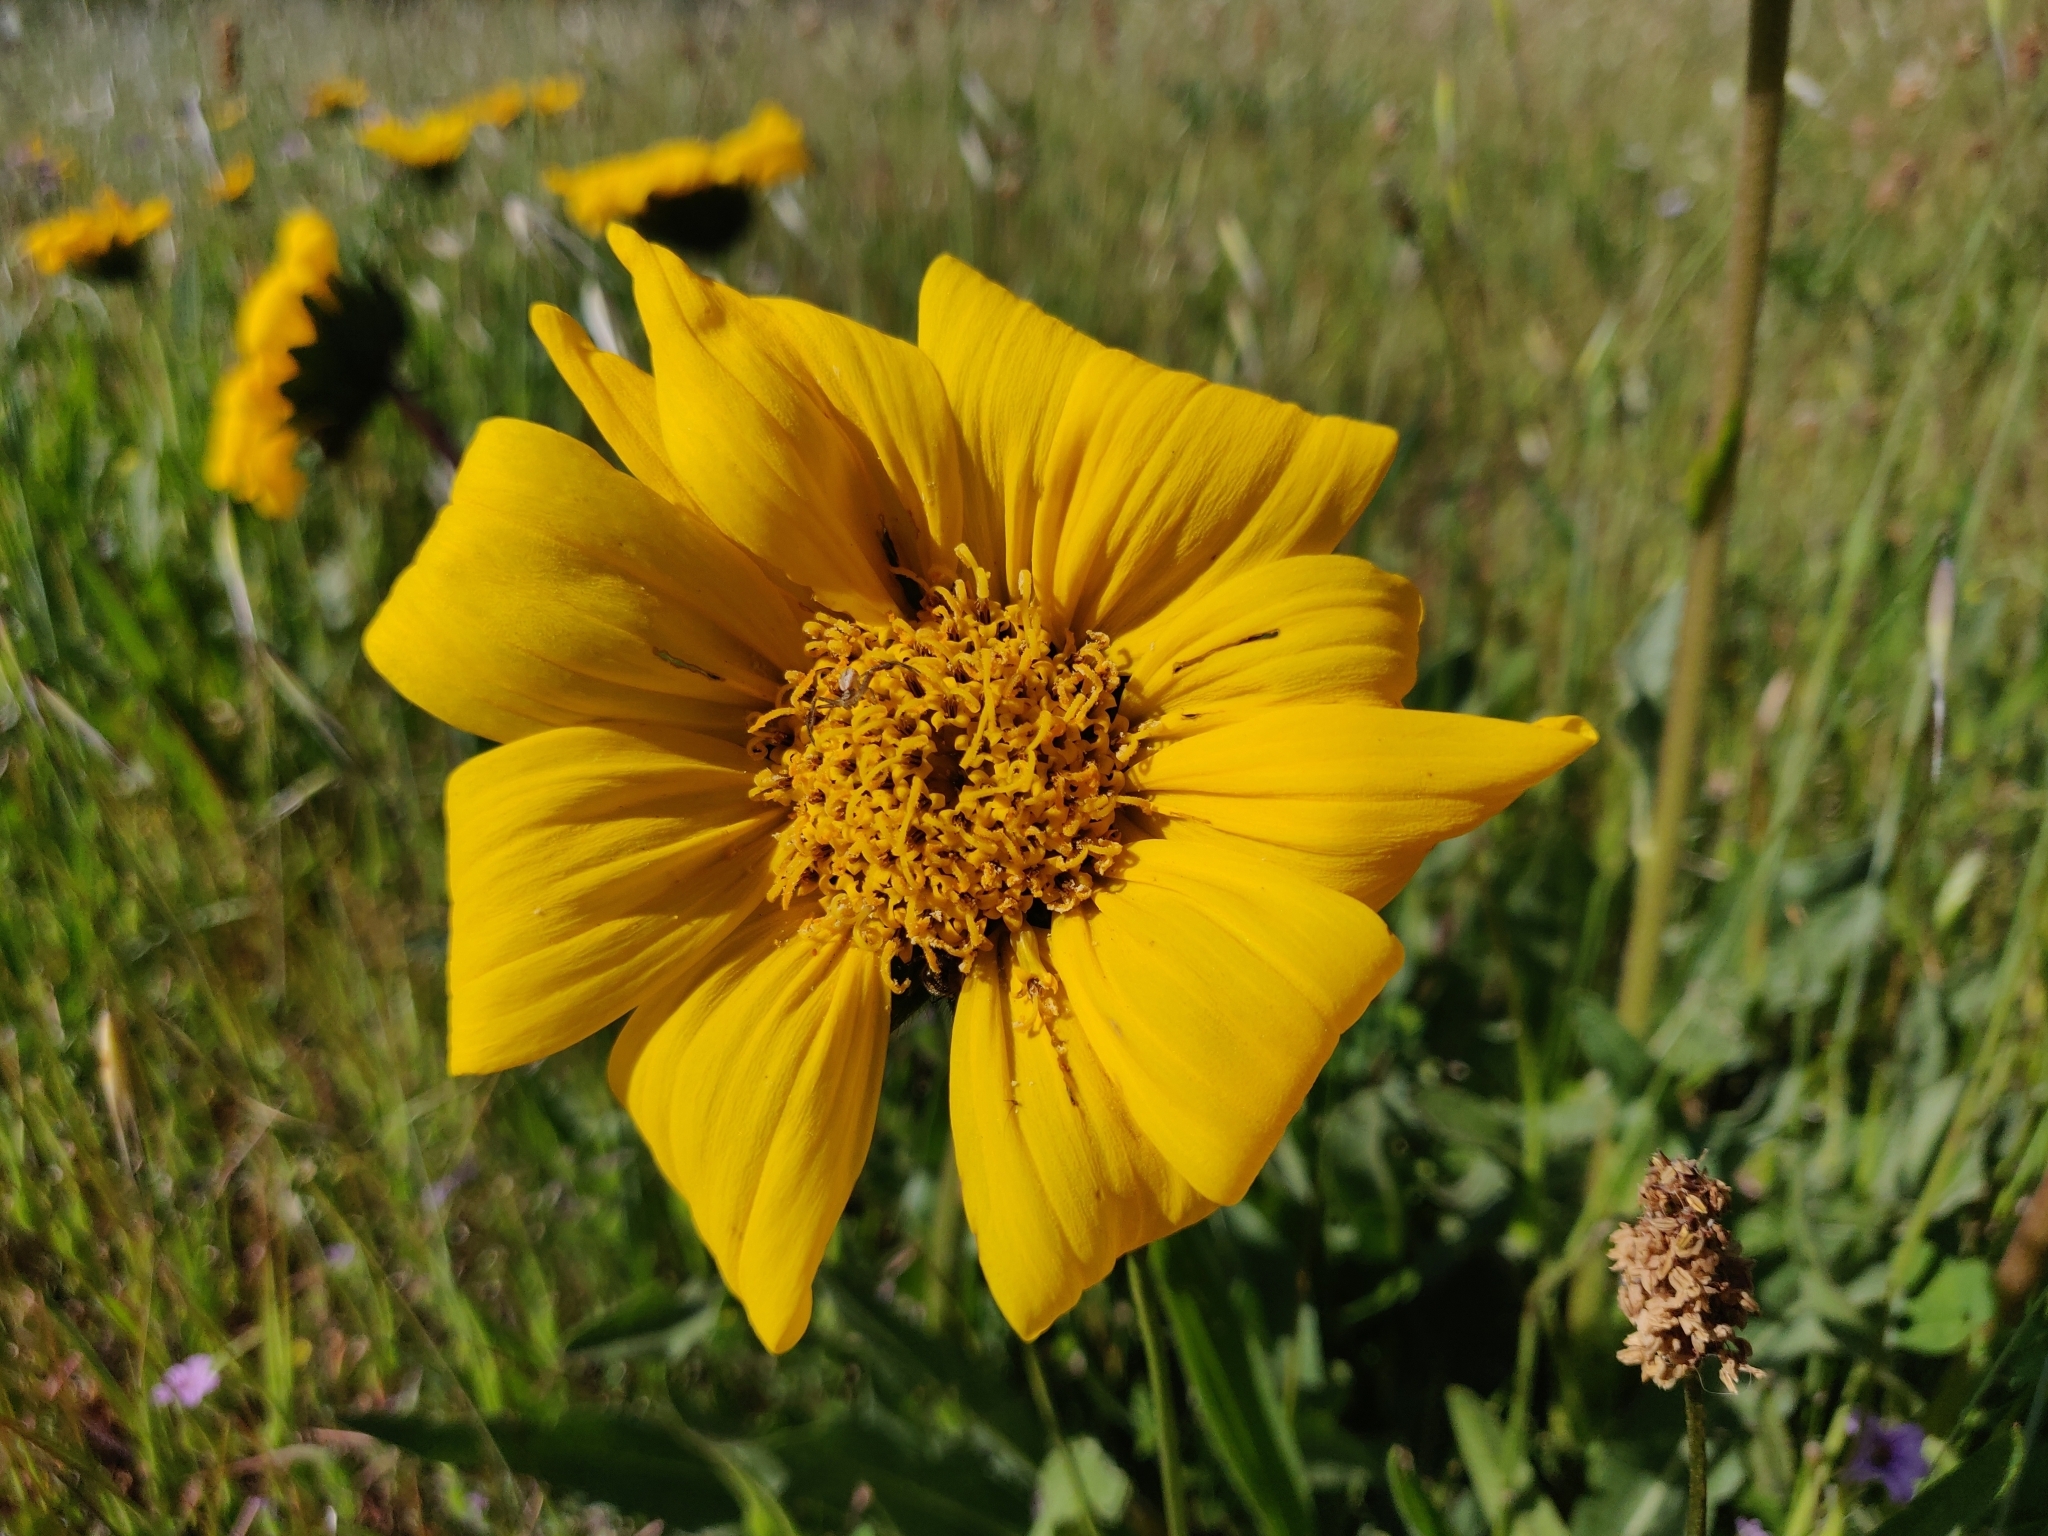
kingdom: Plantae
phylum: Tracheophyta
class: Magnoliopsida
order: Asterales
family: Asteraceae
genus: Wyethia
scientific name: Wyethia angustifolia
